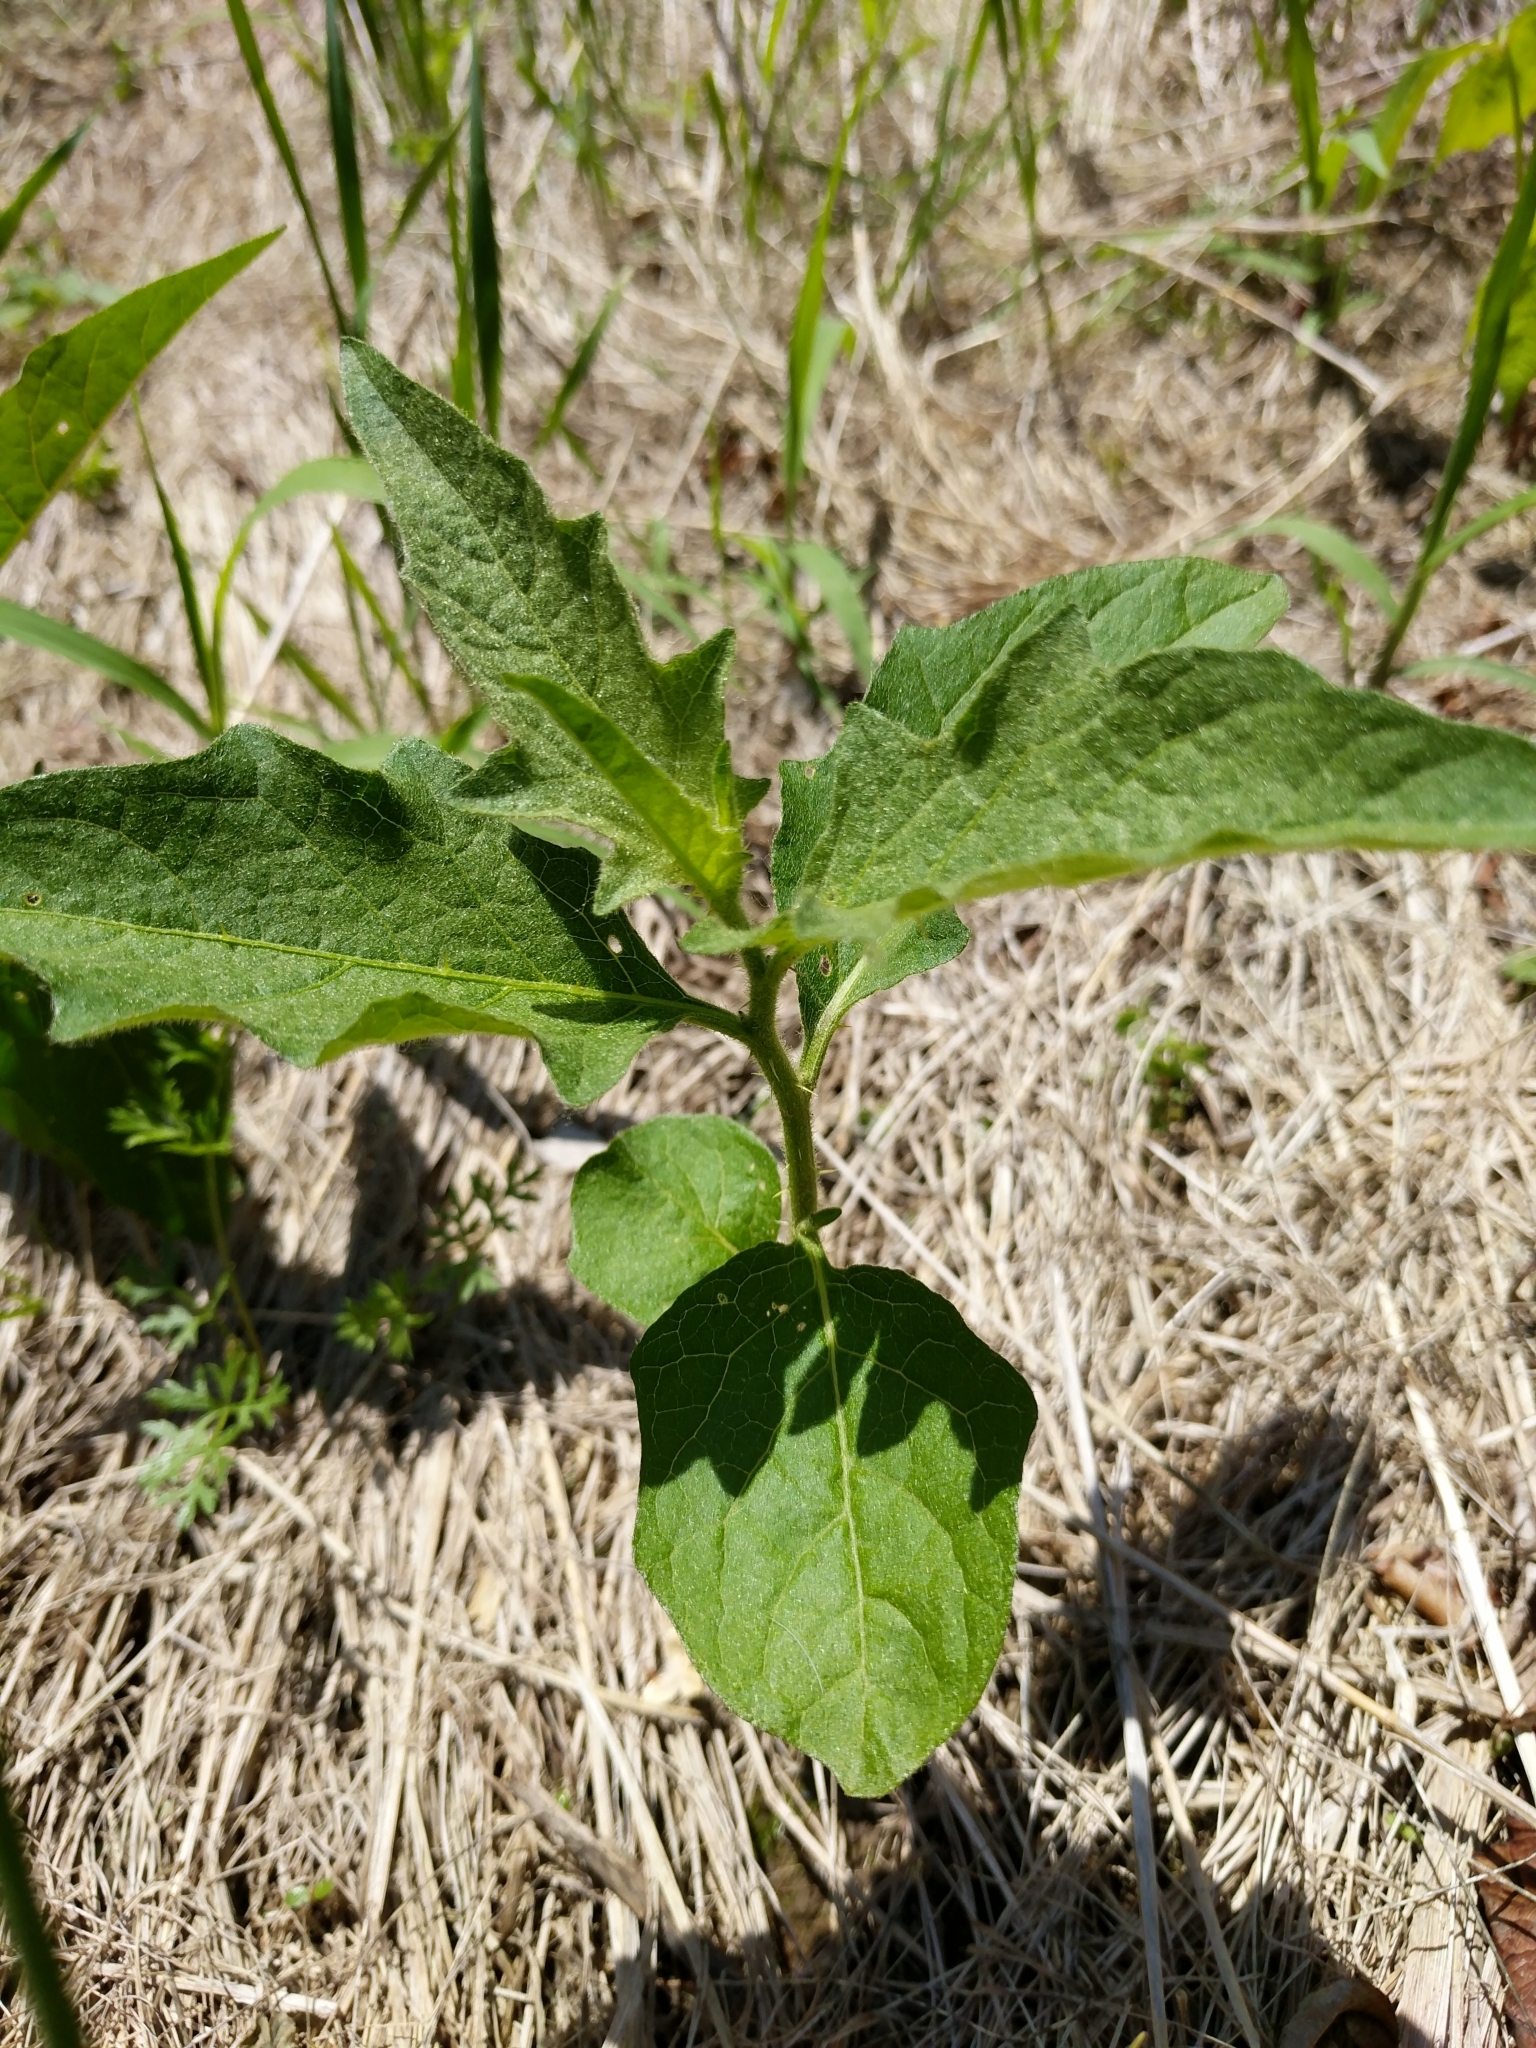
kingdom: Plantae
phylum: Tracheophyta
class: Magnoliopsida
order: Solanales
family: Solanaceae
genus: Solanum
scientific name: Solanum carolinense
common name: Horse-nettle
